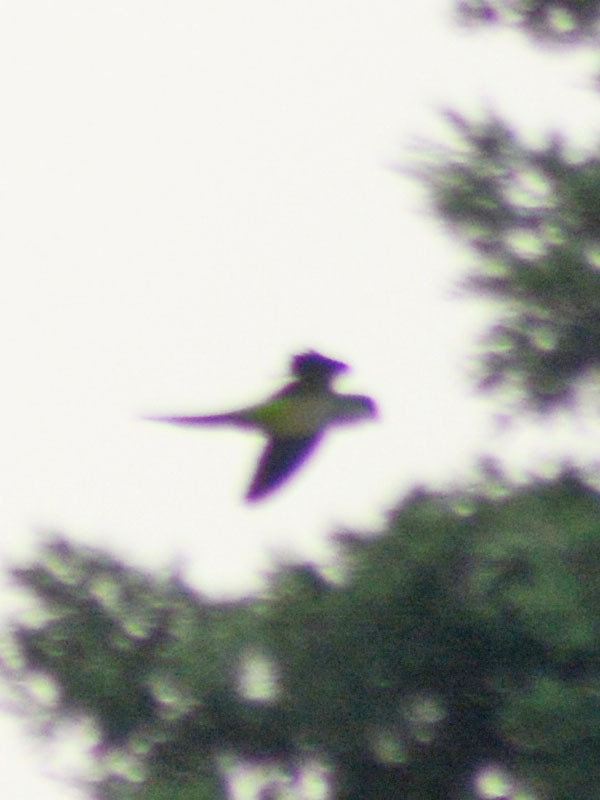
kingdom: Animalia
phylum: Chordata
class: Aves
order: Psittaciformes
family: Psittacidae
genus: Myiopsitta
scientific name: Myiopsitta monachus
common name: Monk parakeet
